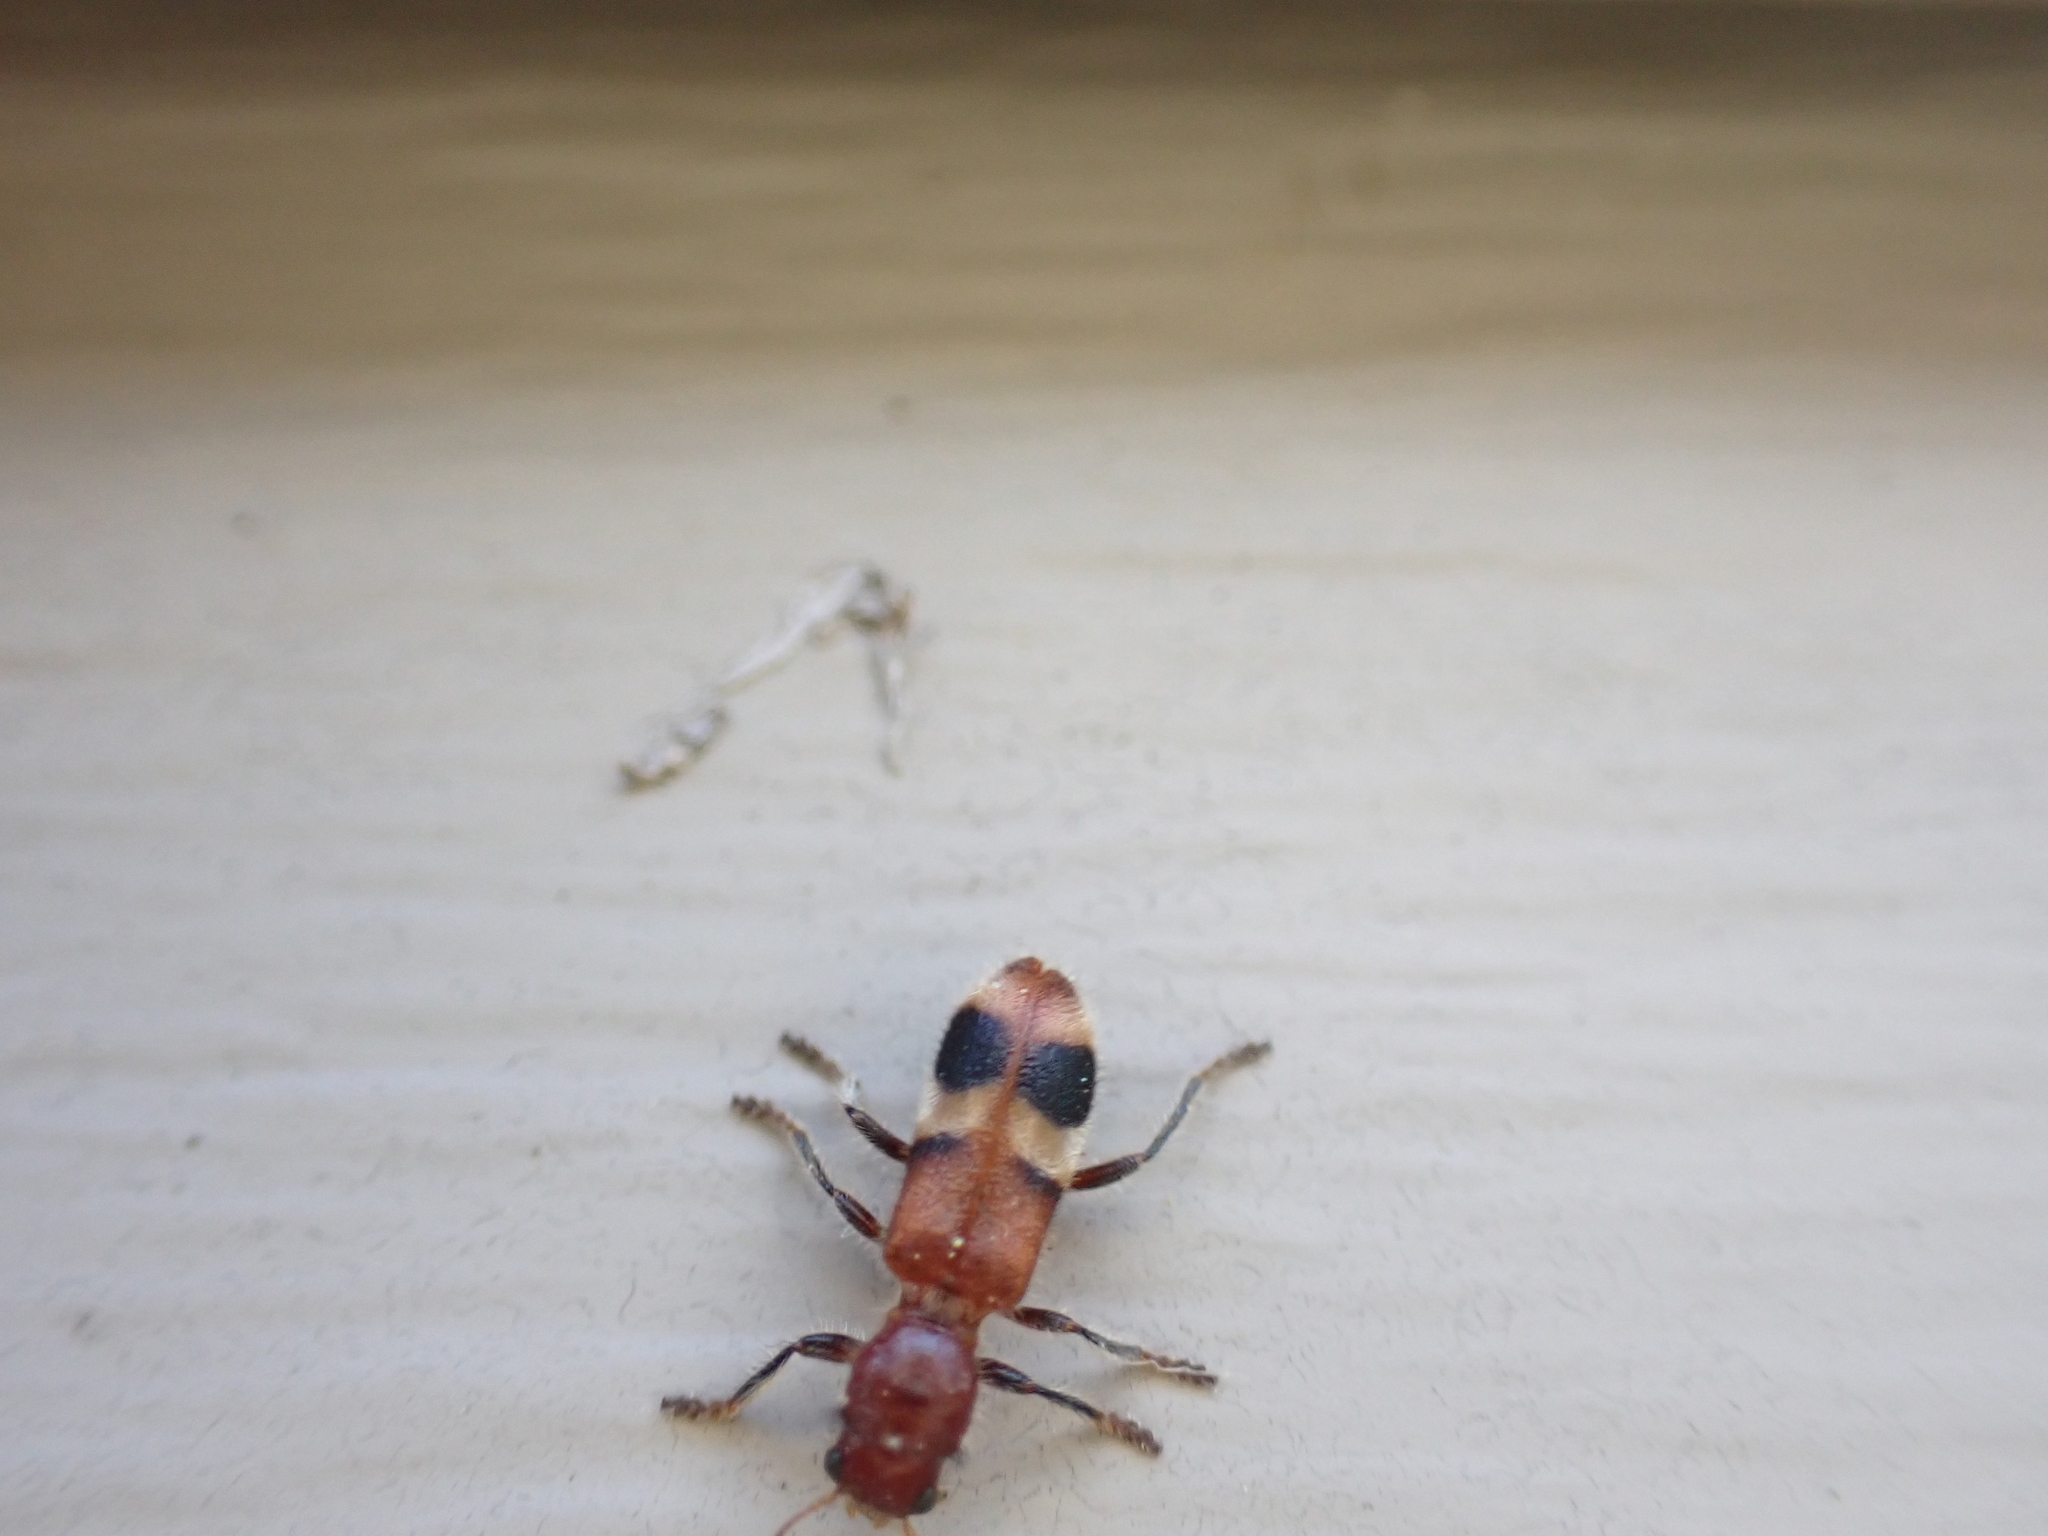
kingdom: Animalia
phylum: Arthropoda
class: Insecta
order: Coleoptera
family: Cleridae
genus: Enoclerus
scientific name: Enoclerus rosmarus
